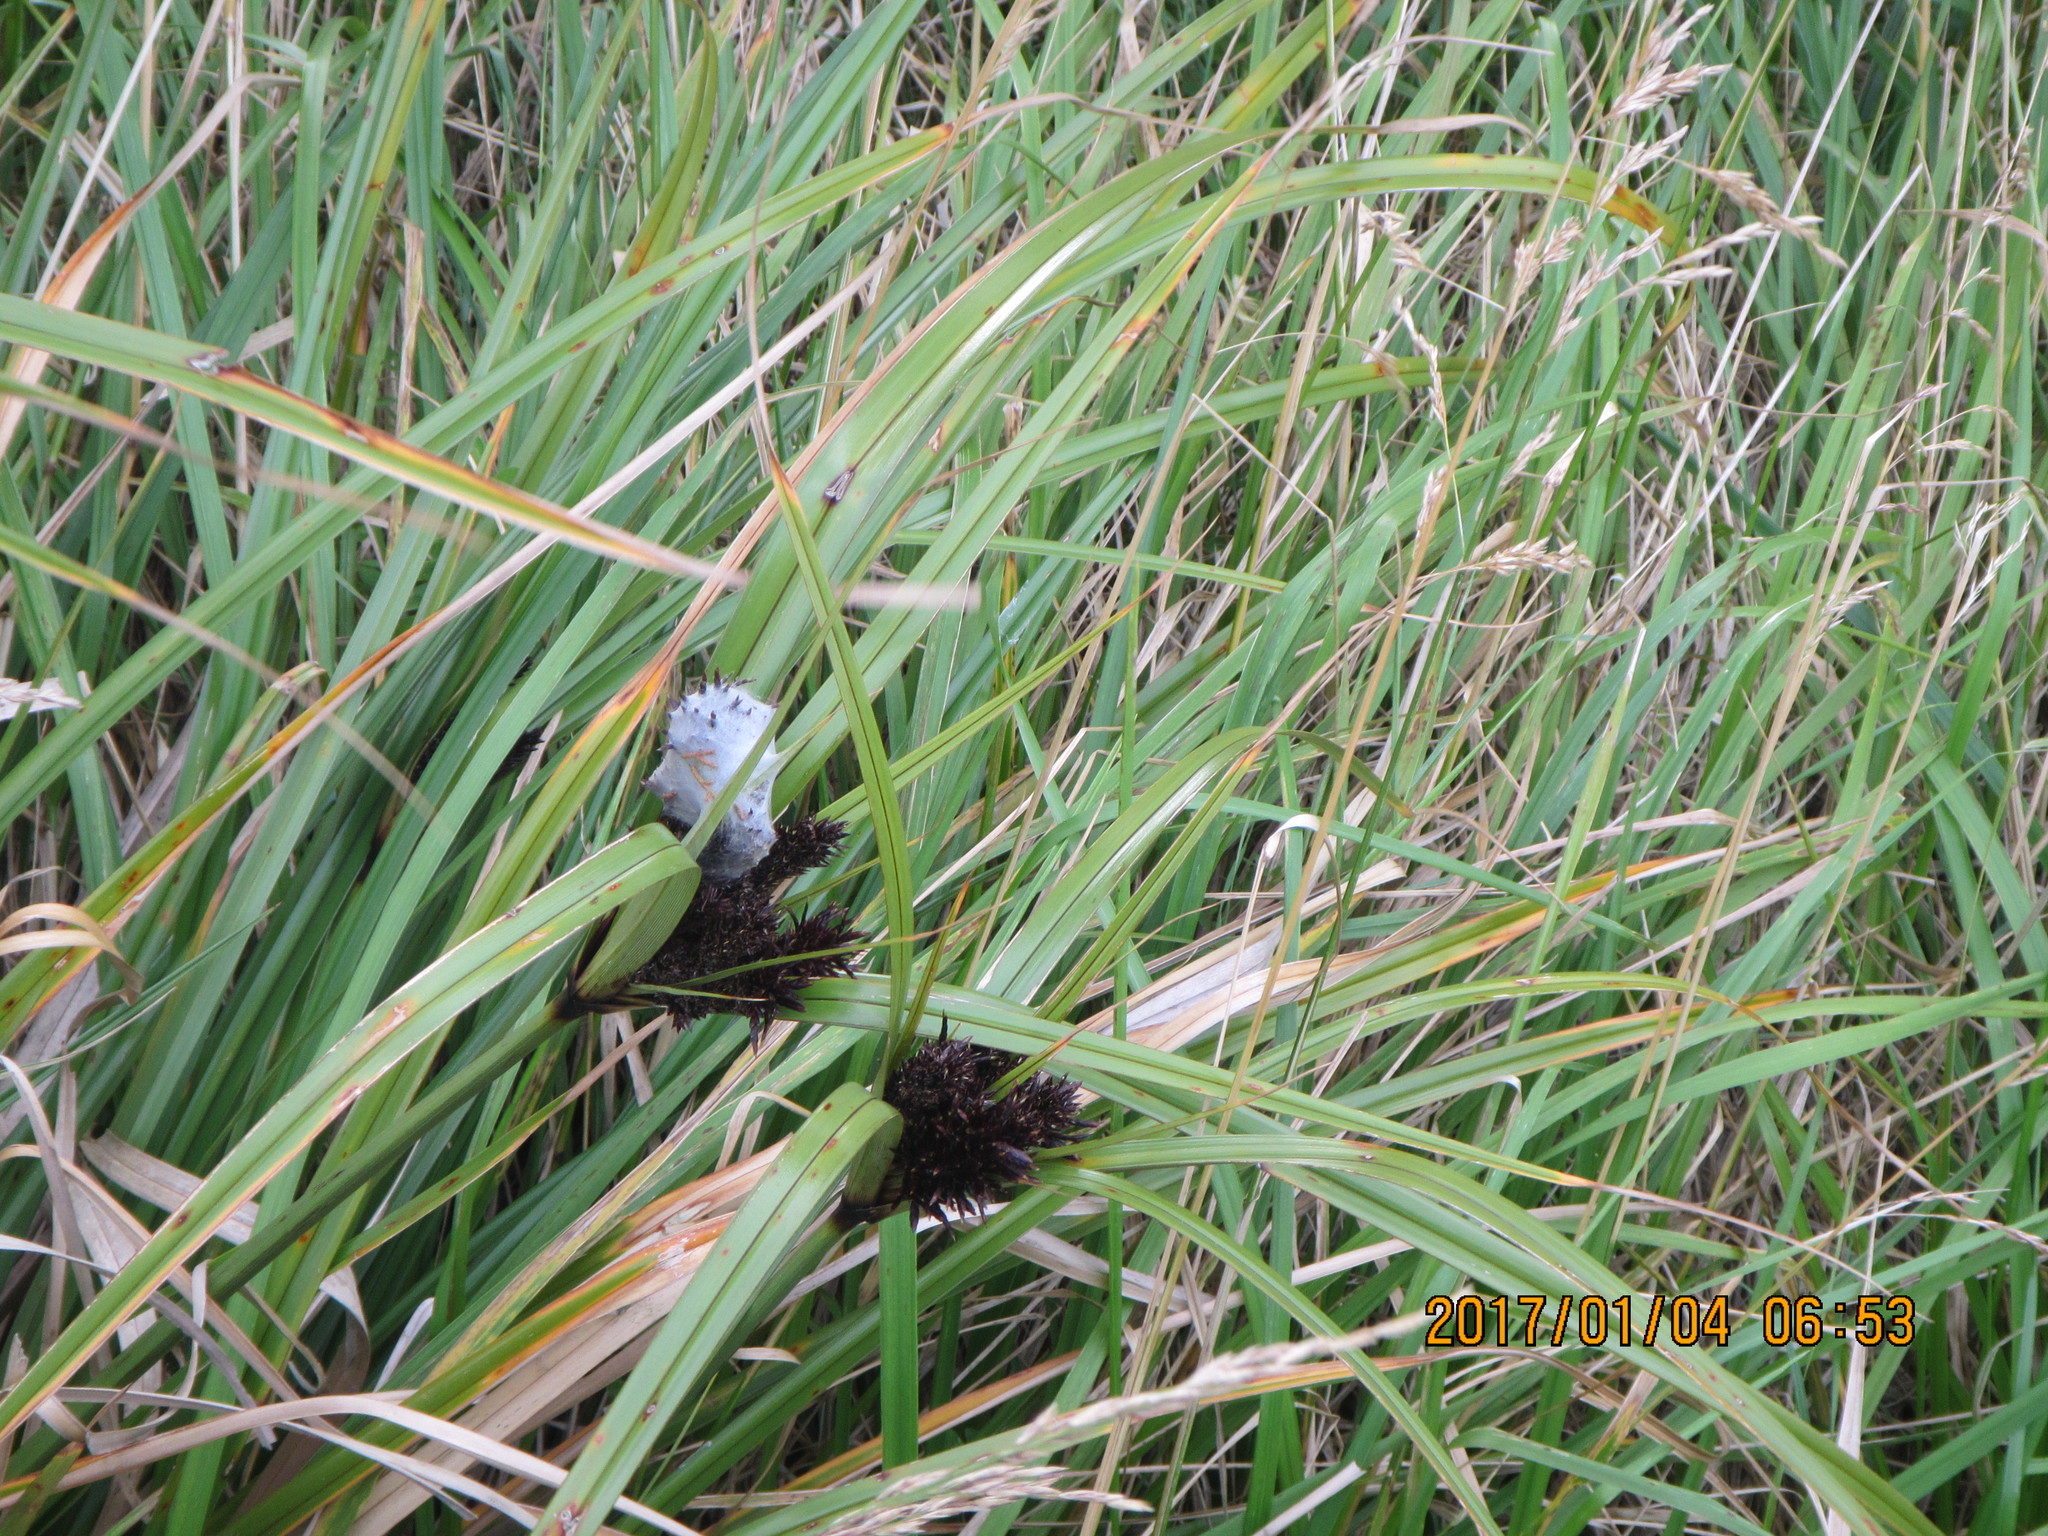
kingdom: Plantae
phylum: Tracheophyta
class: Liliopsida
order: Poales
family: Cyperaceae
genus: Cyperus
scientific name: Cyperus ustulatus
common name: Giant umbrella-sedge
